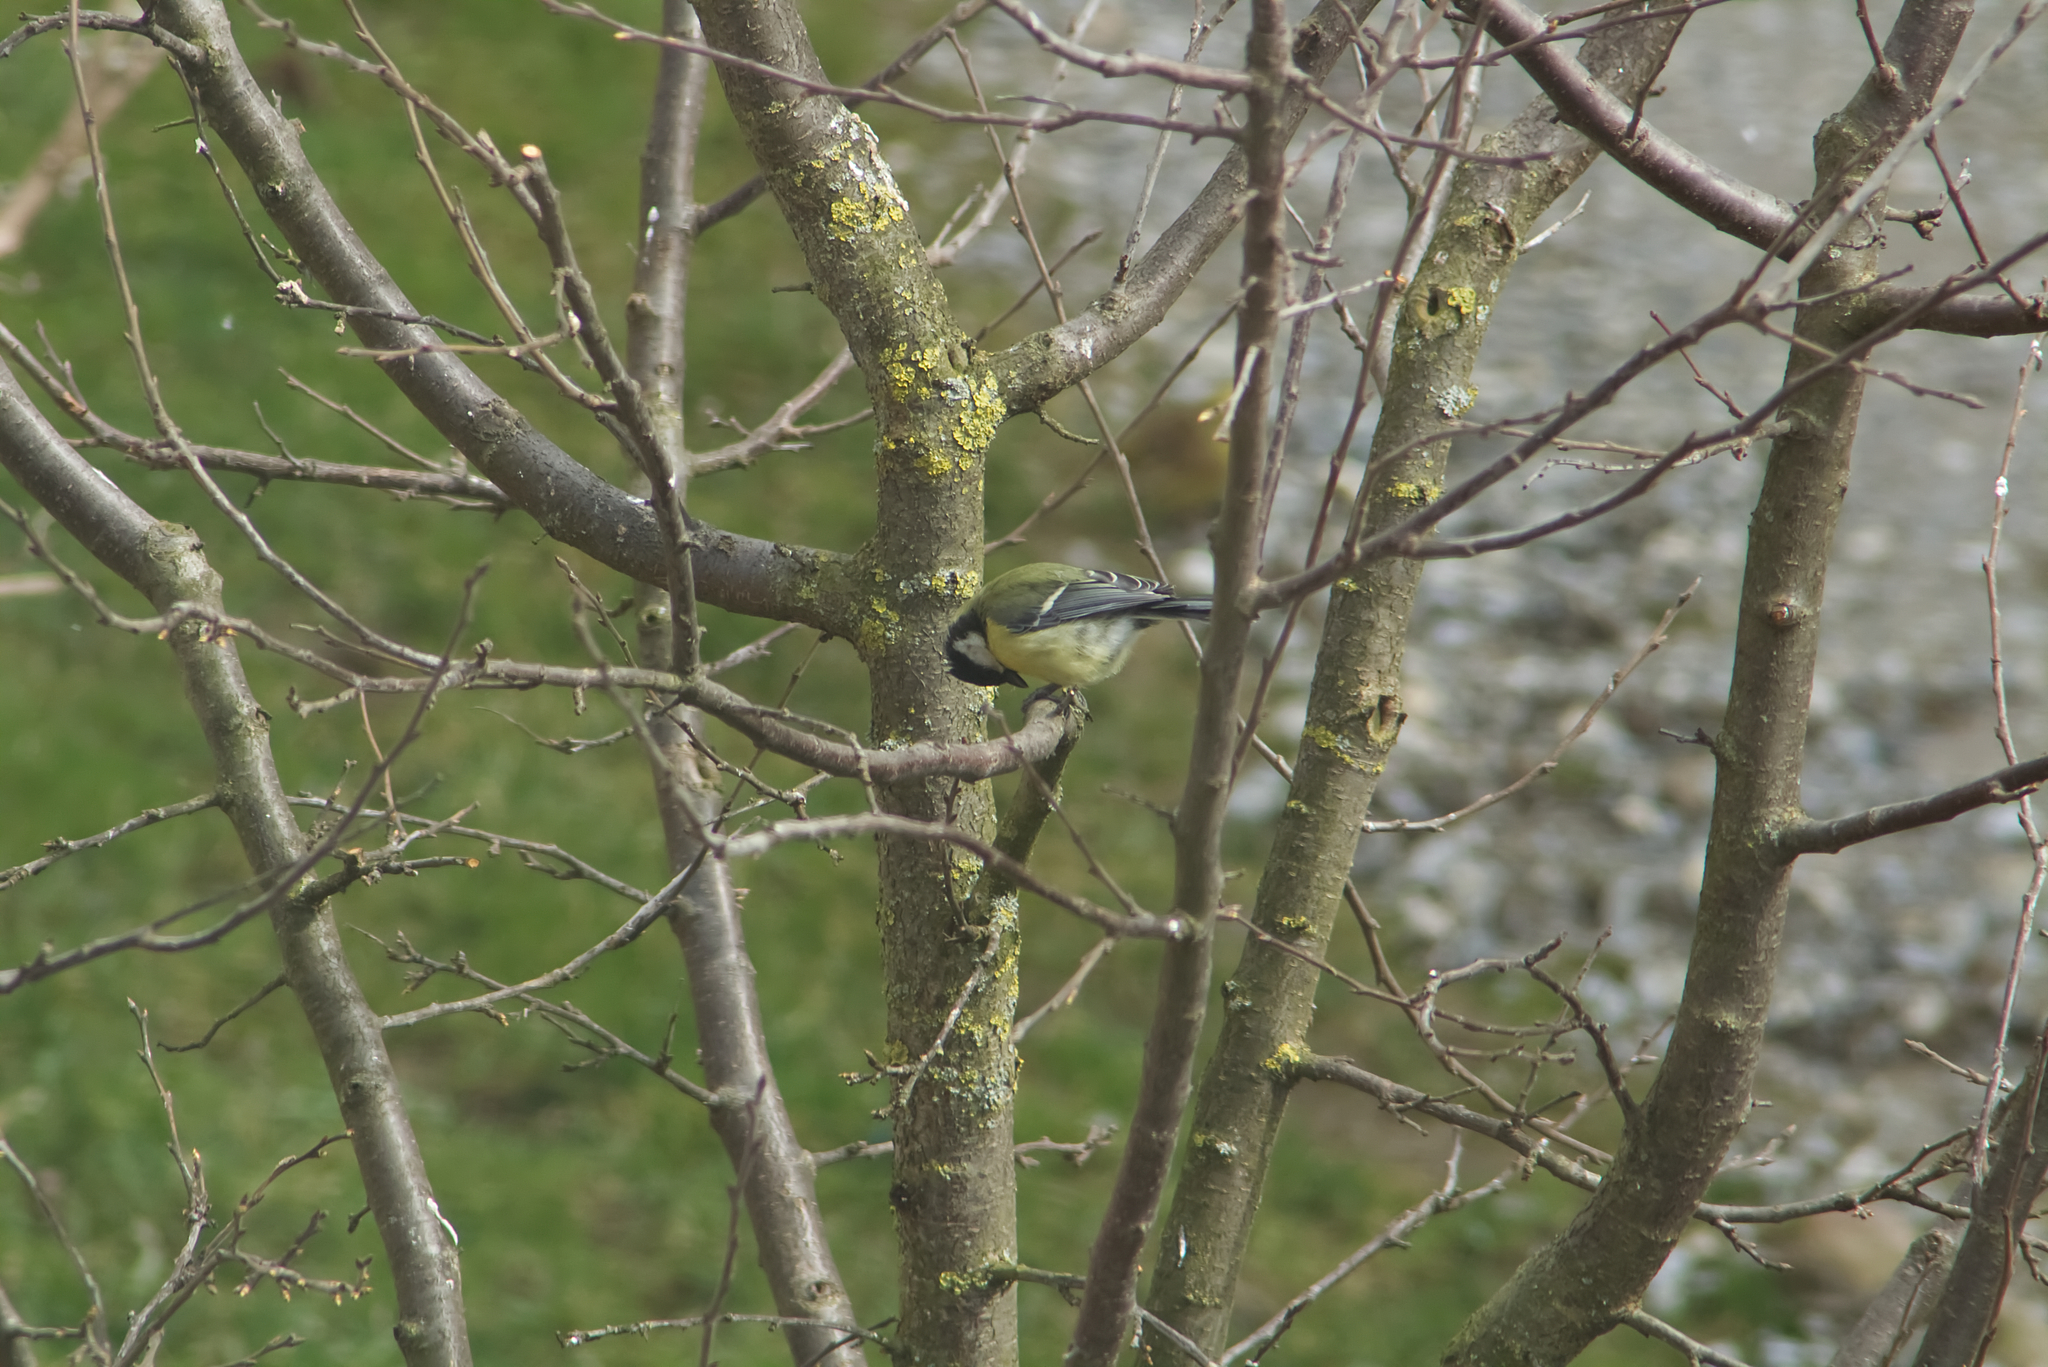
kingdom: Animalia
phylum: Chordata
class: Aves
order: Passeriformes
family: Paridae
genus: Parus
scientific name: Parus major
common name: Great tit
